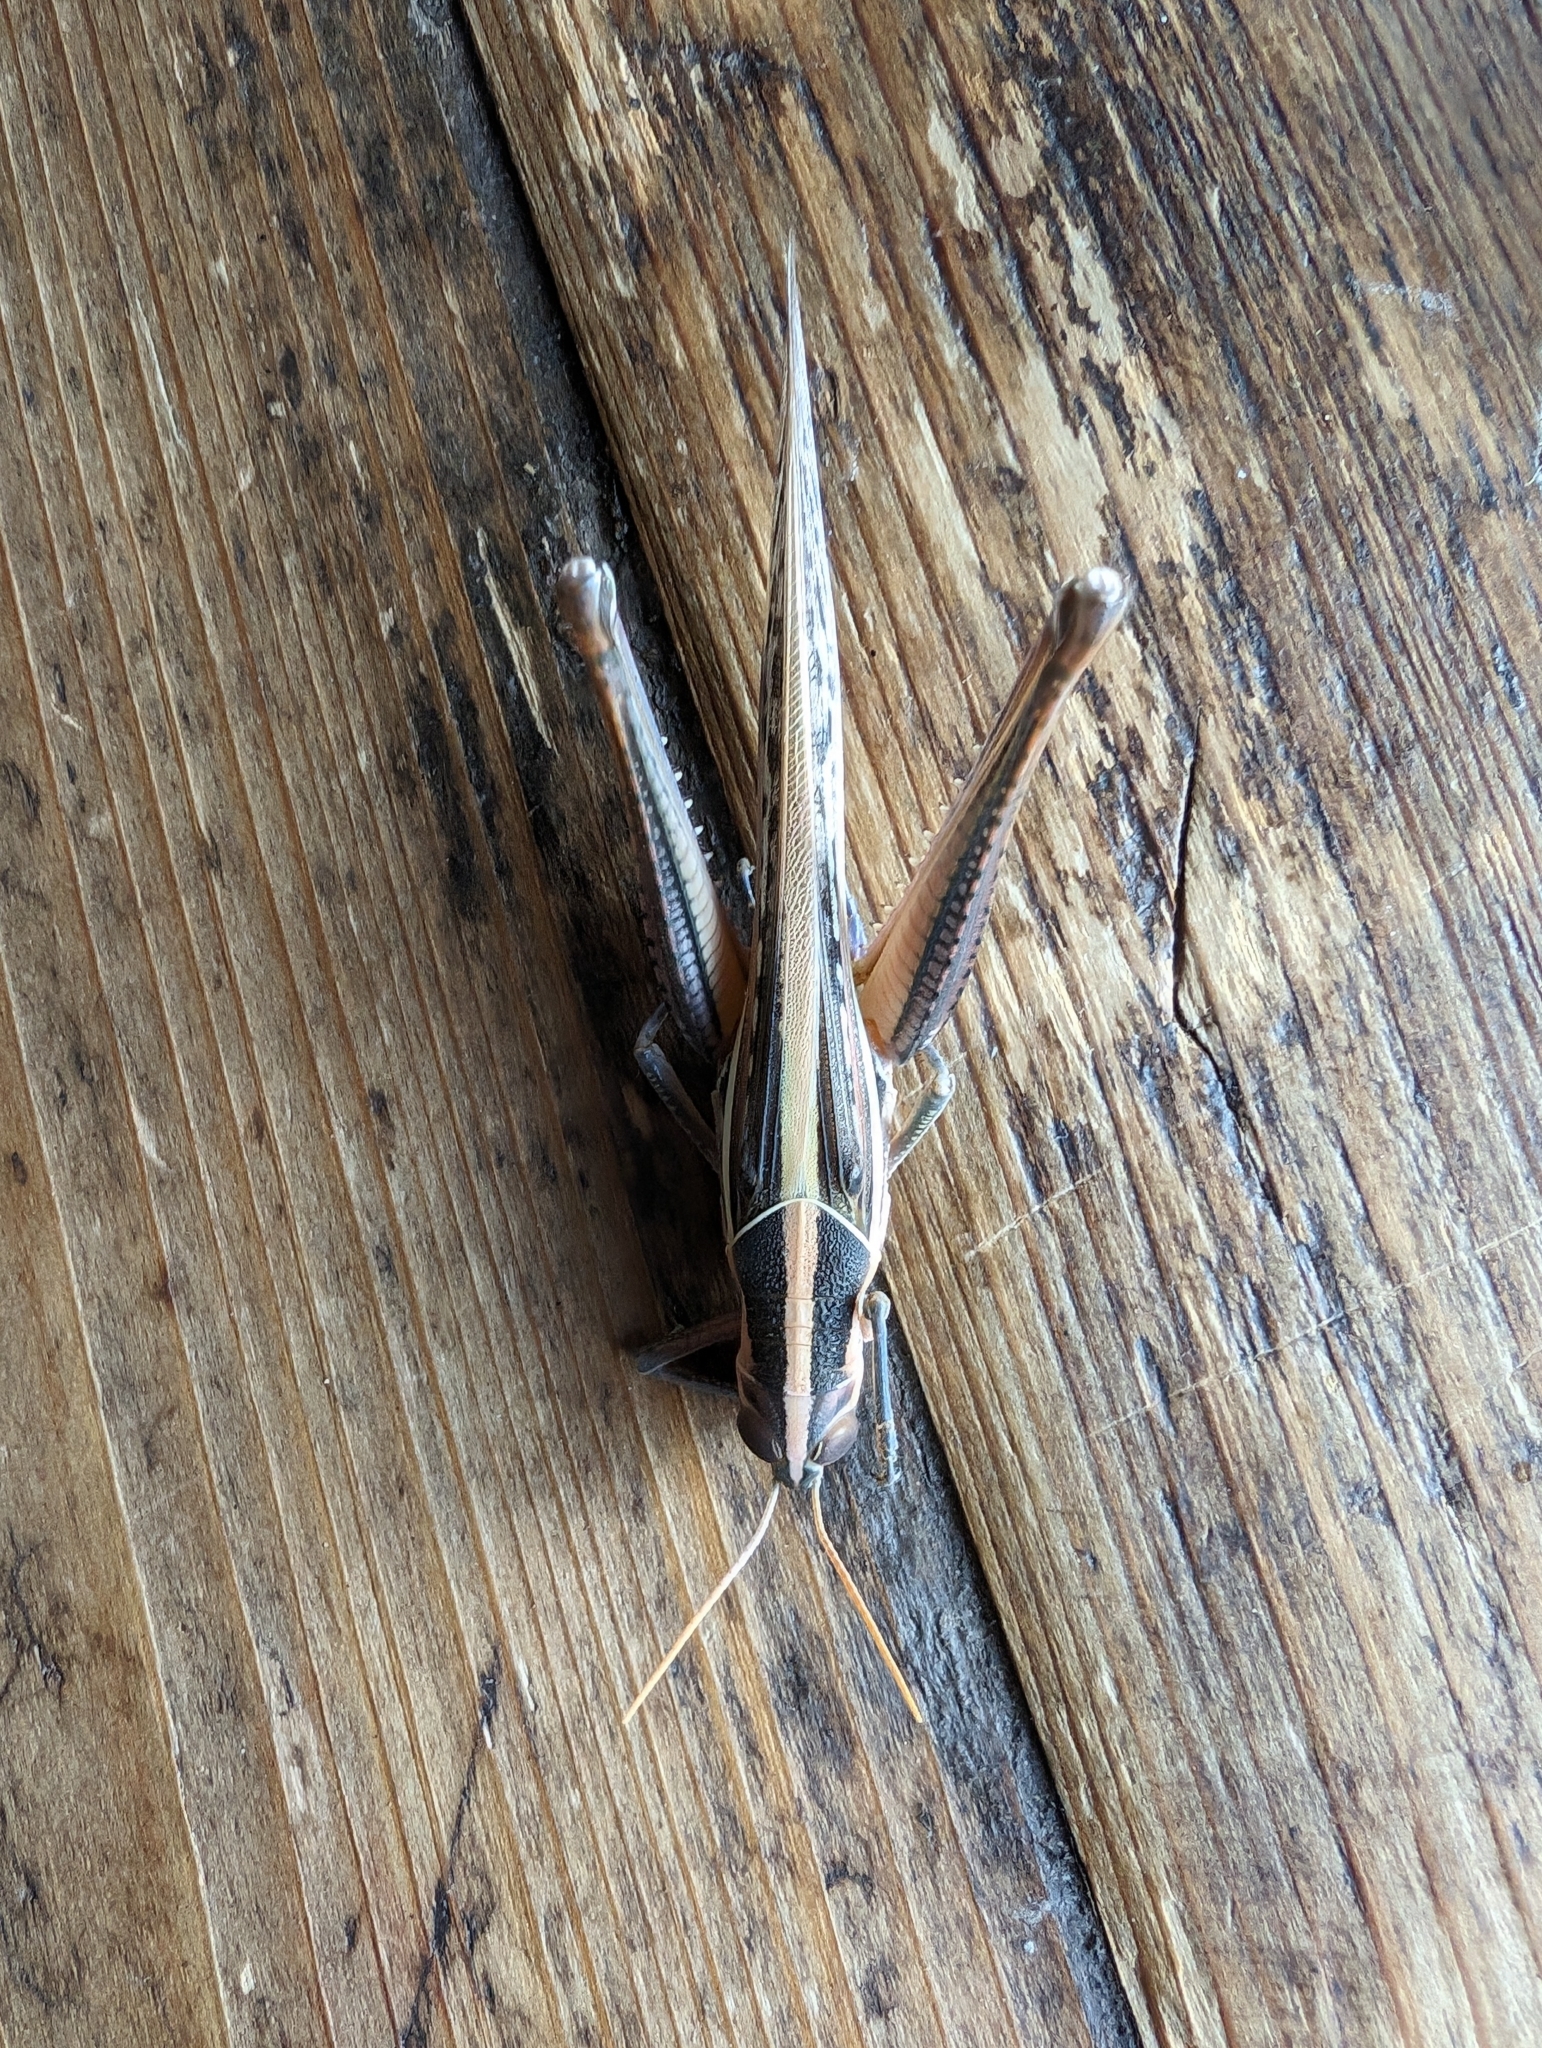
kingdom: Animalia
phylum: Arthropoda
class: Insecta
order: Orthoptera
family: Acrididae
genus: Austracris
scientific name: Austracris guttulosa
